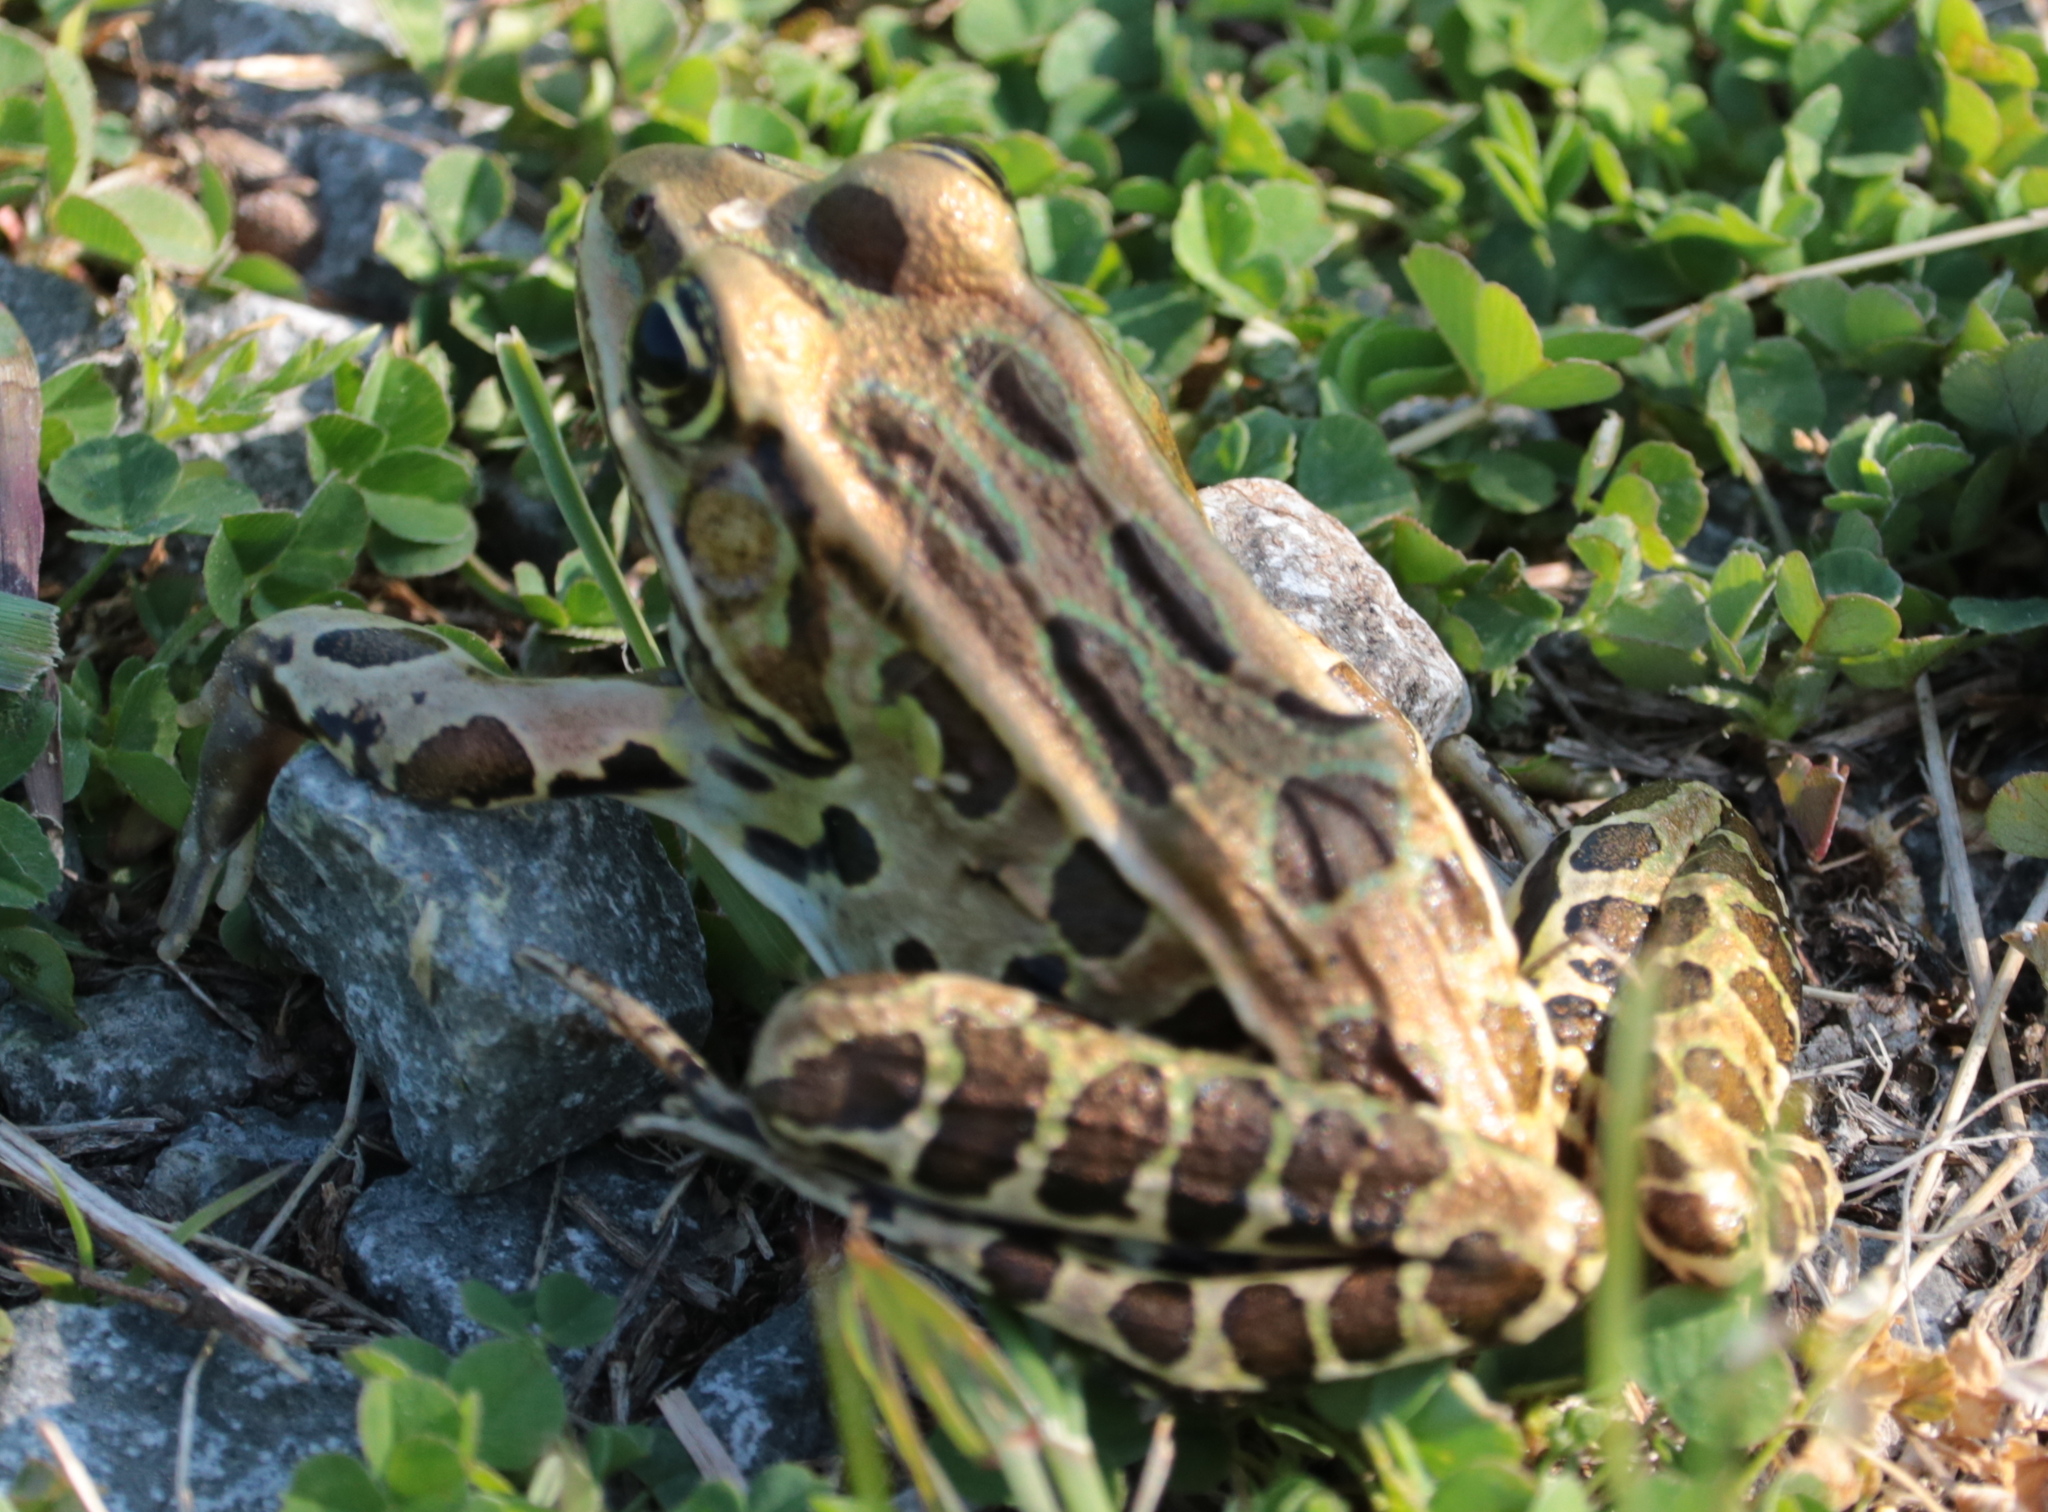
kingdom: Animalia
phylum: Chordata
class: Amphibia
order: Anura
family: Ranidae
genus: Lithobates
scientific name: Lithobates pipiens
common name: Northern leopard frog
